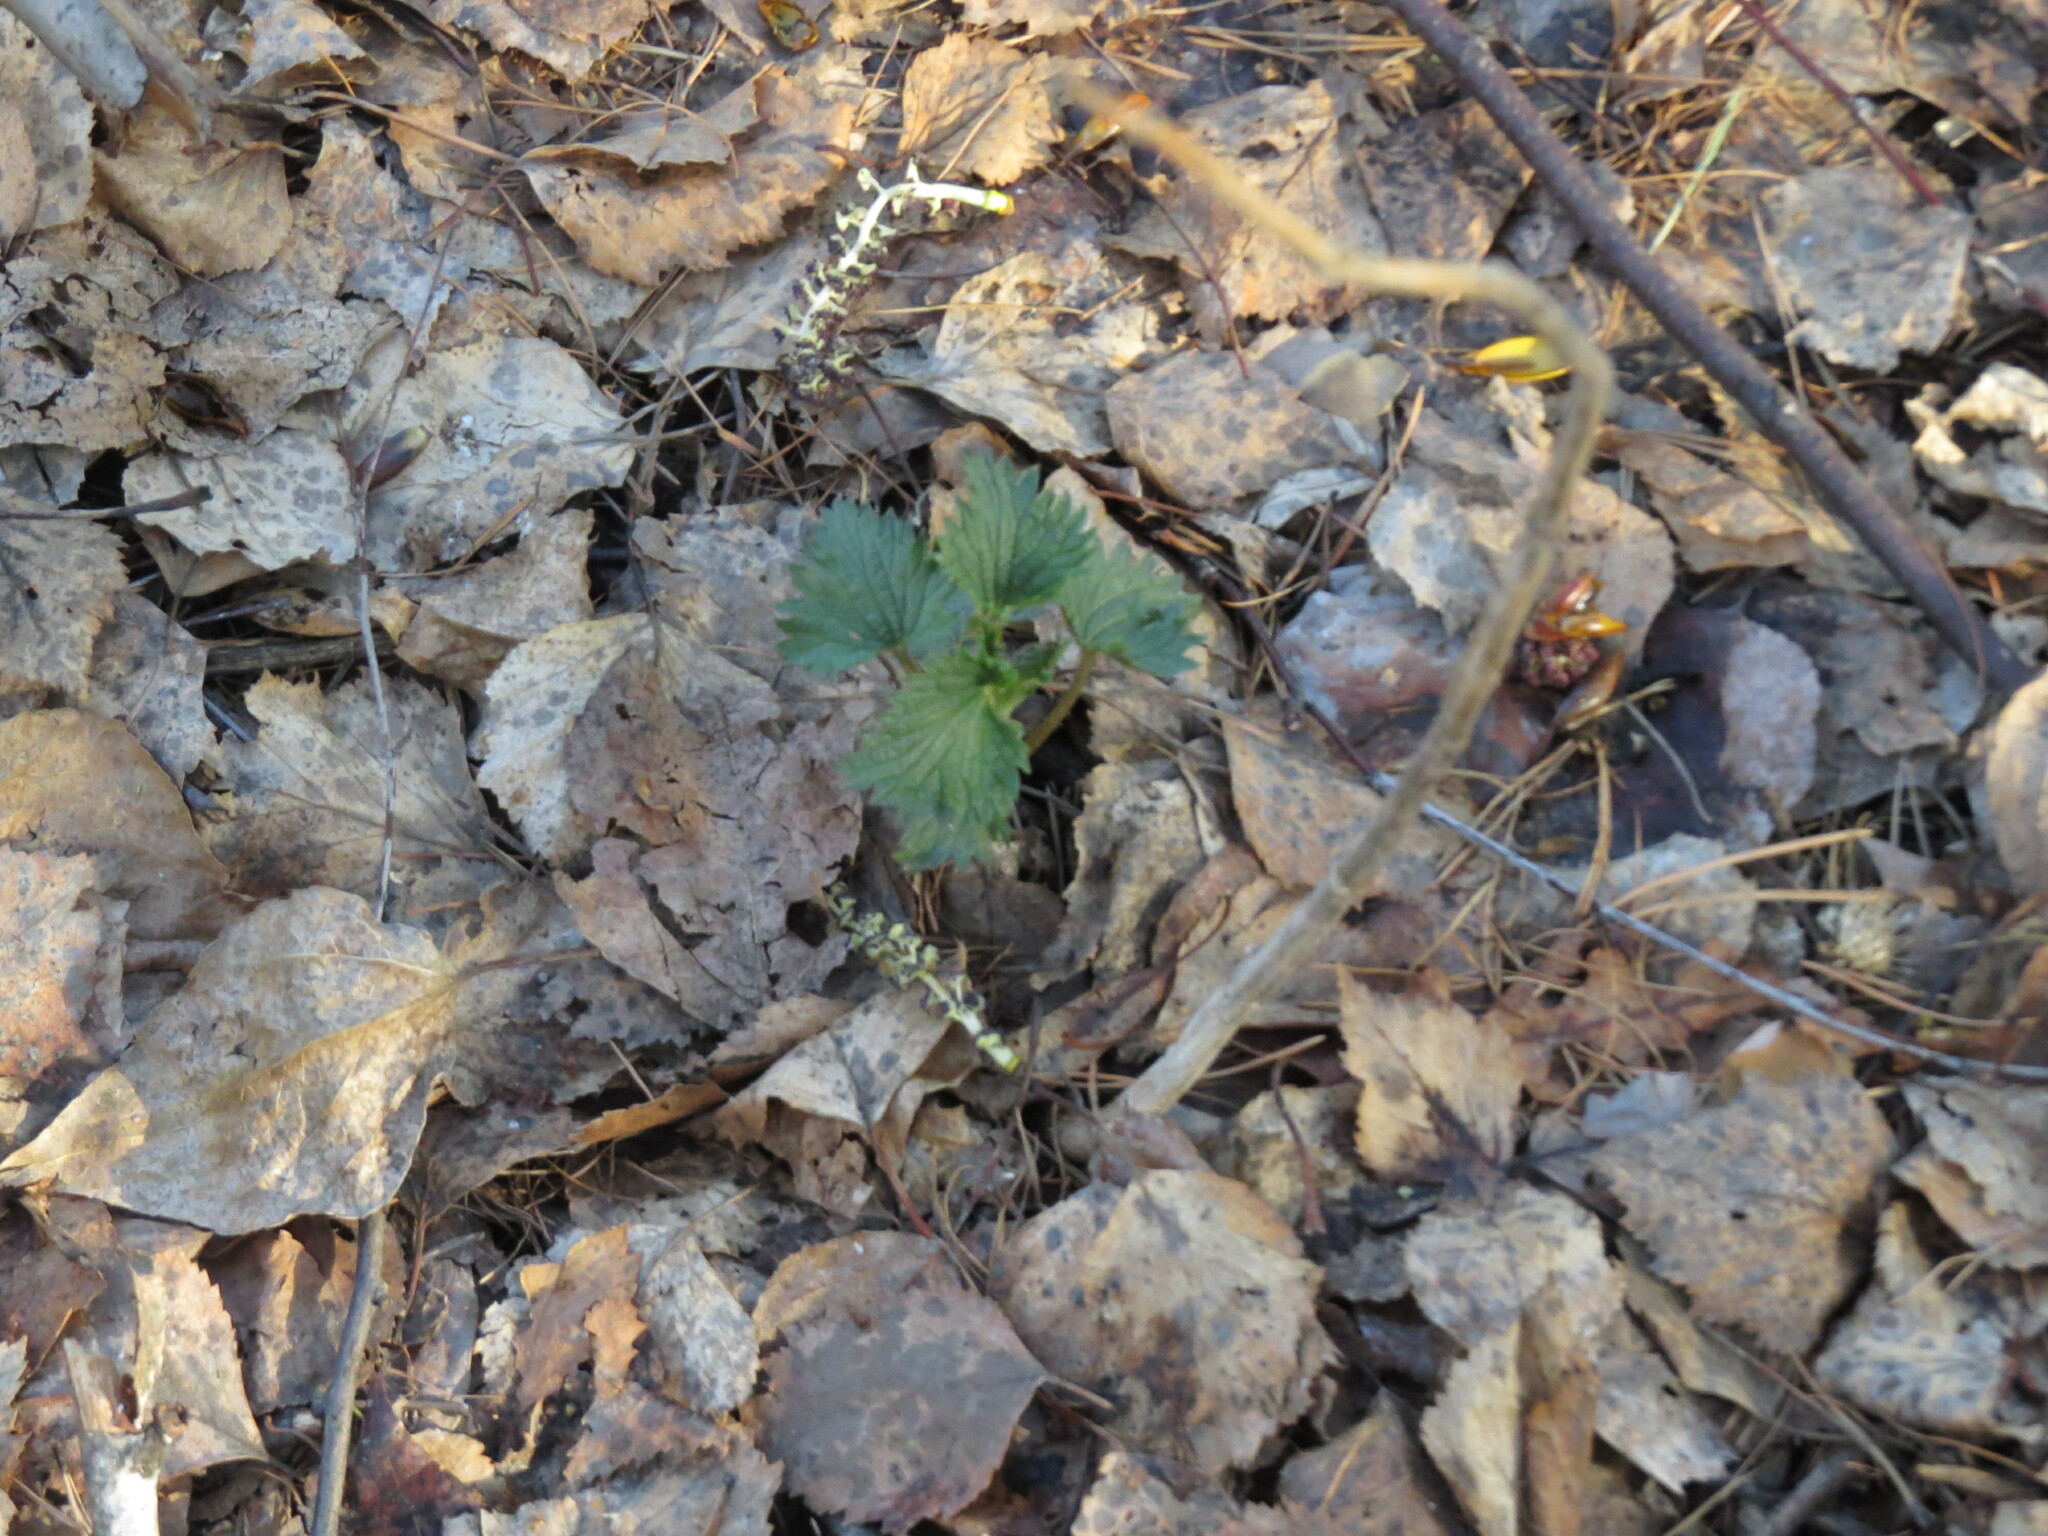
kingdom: Plantae
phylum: Tracheophyta
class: Magnoliopsida
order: Rosales
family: Urticaceae
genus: Urtica
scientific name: Urtica dioica
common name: Common nettle
